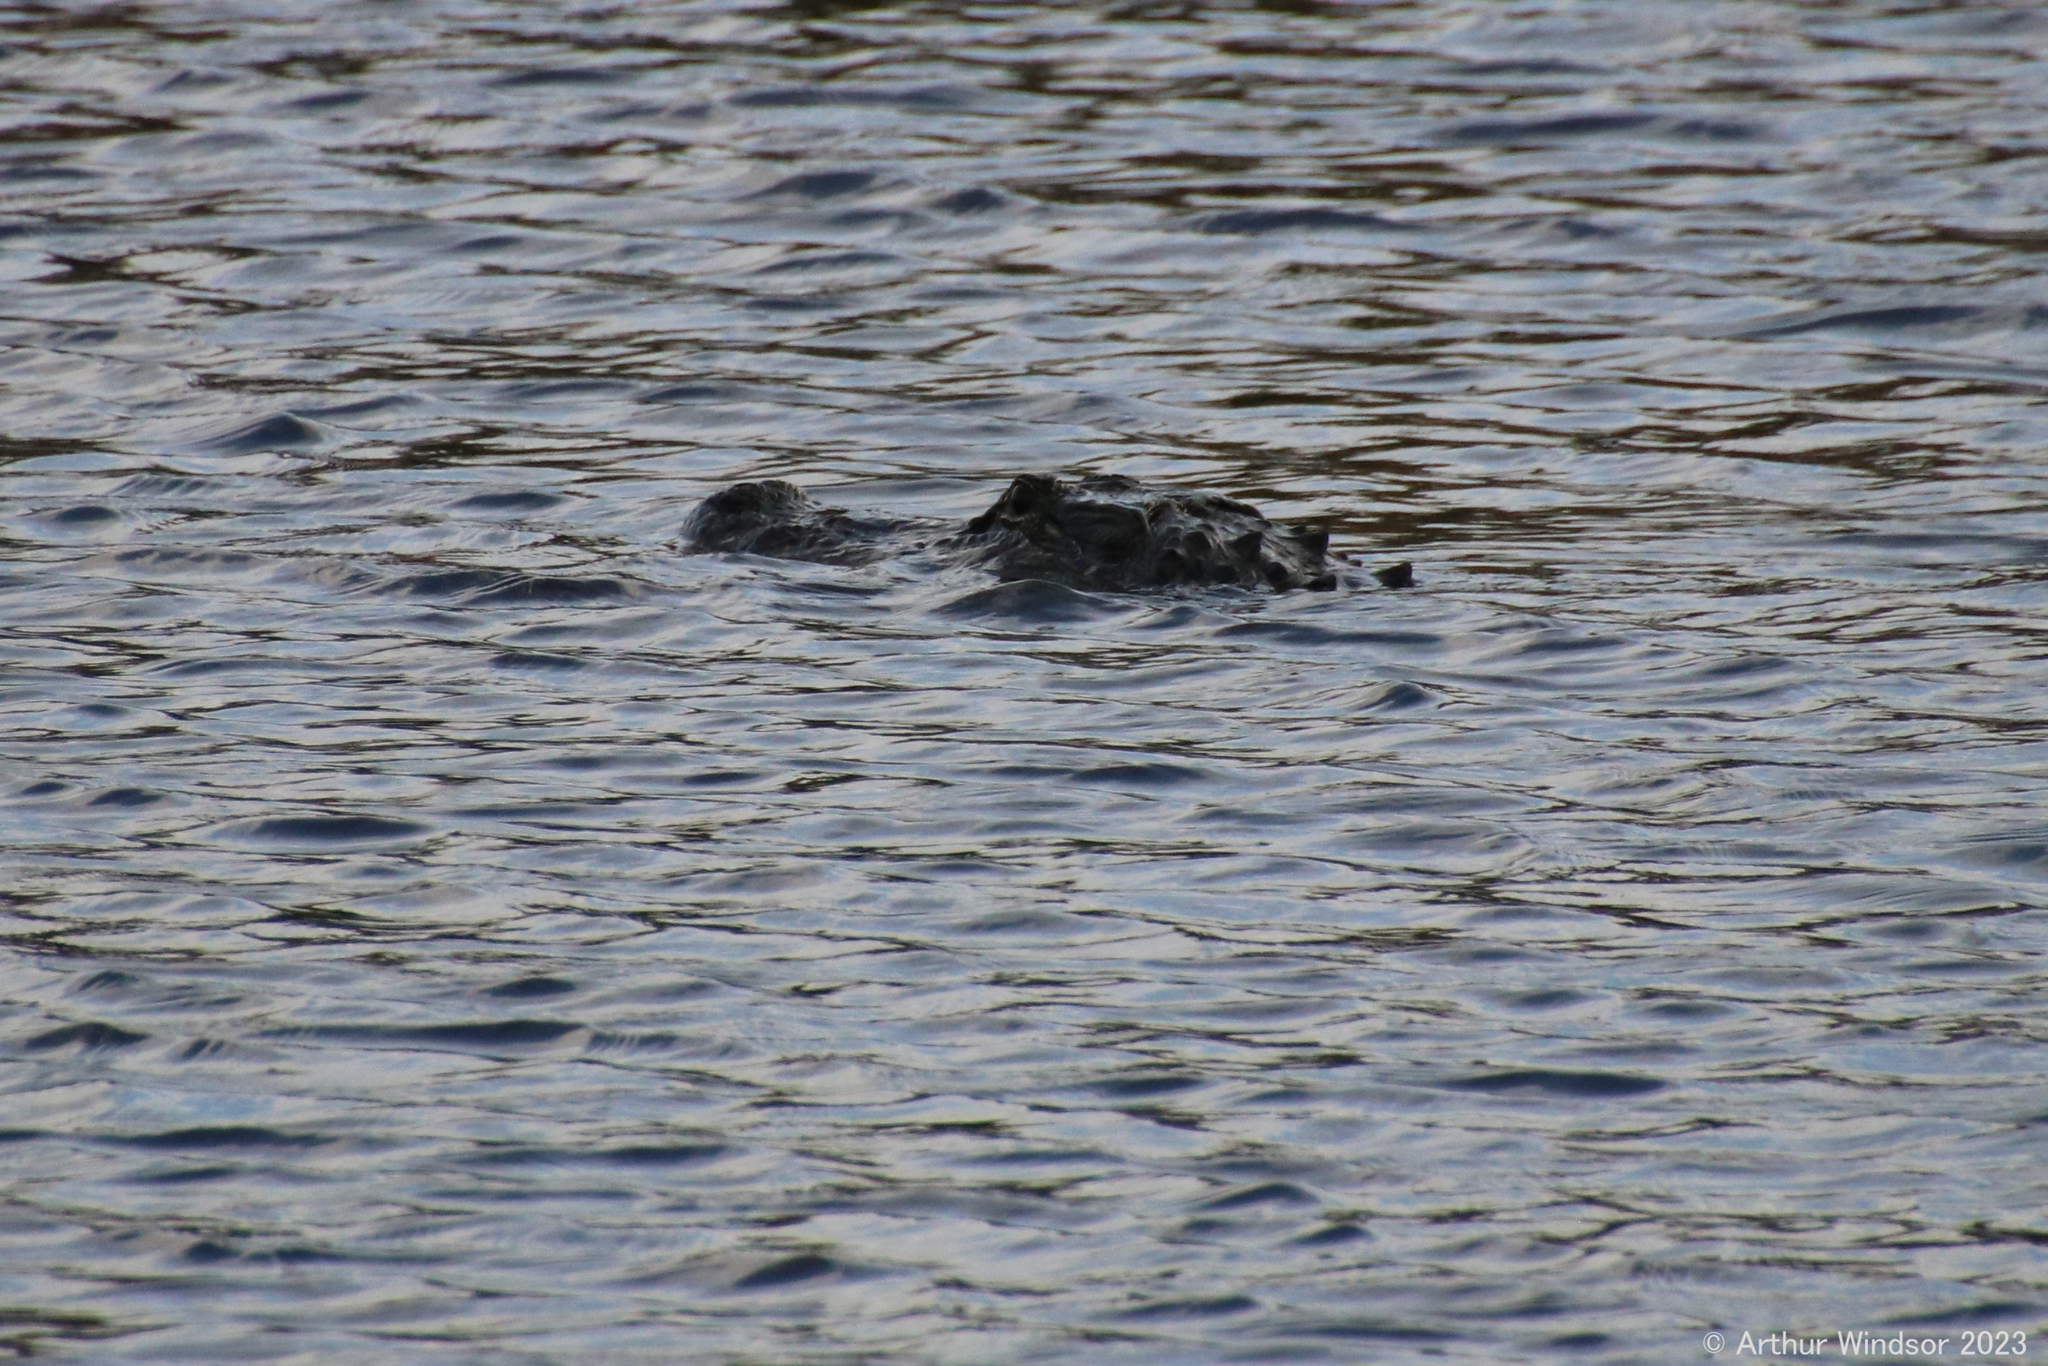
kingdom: Animalia
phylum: Chordata
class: Crocodylia
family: Alligatoridae
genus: Alligator
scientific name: Alligator mississippiensis
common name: American alligator
